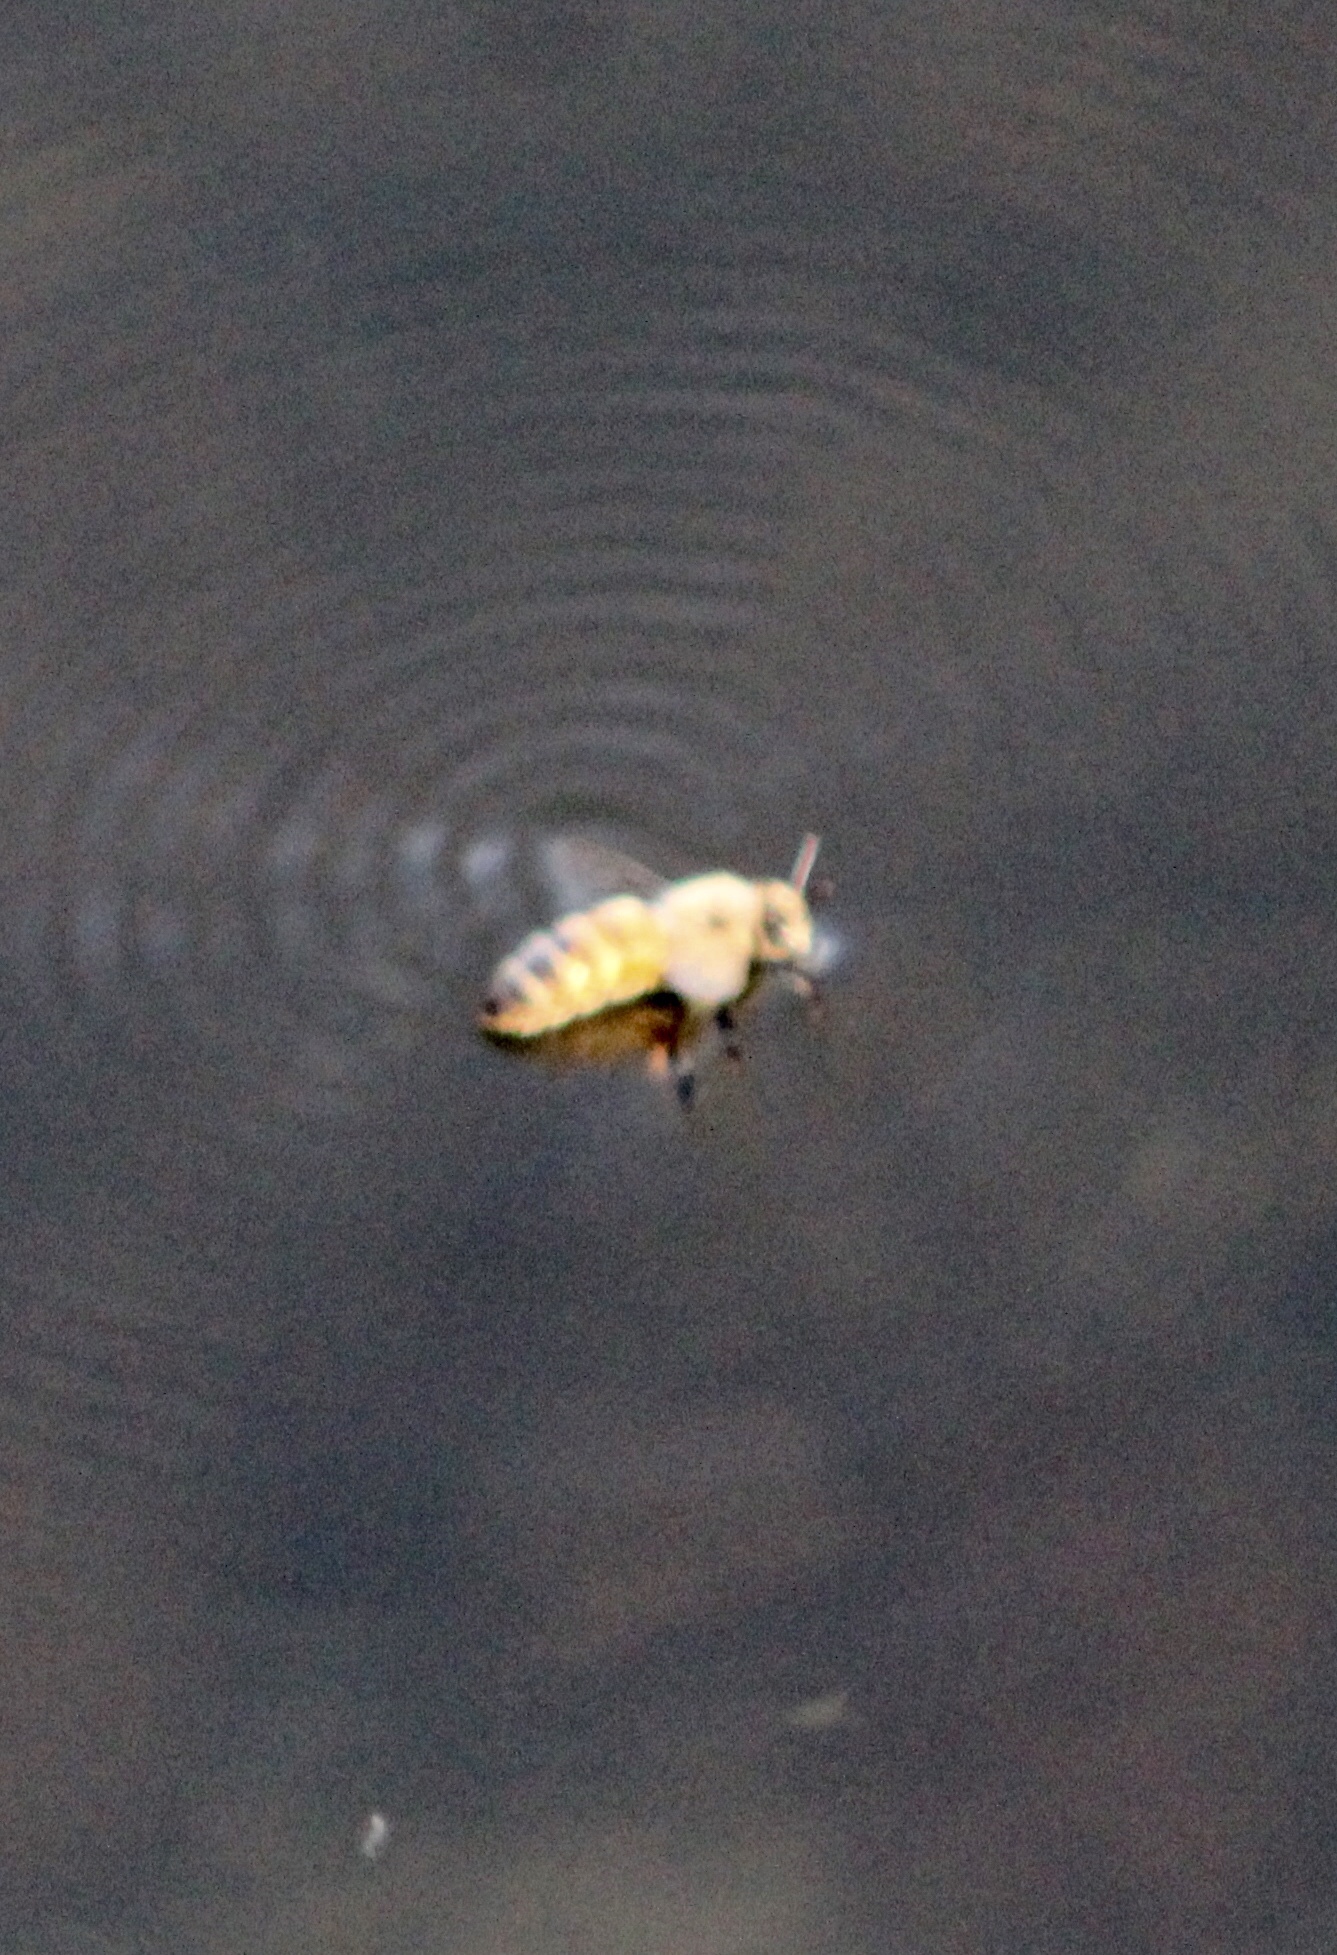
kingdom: Animalia
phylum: Arthropoda
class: Insecta
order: Hymenoptera
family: Apidae
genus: Apis
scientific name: Apis mellifera
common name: Honey bee
